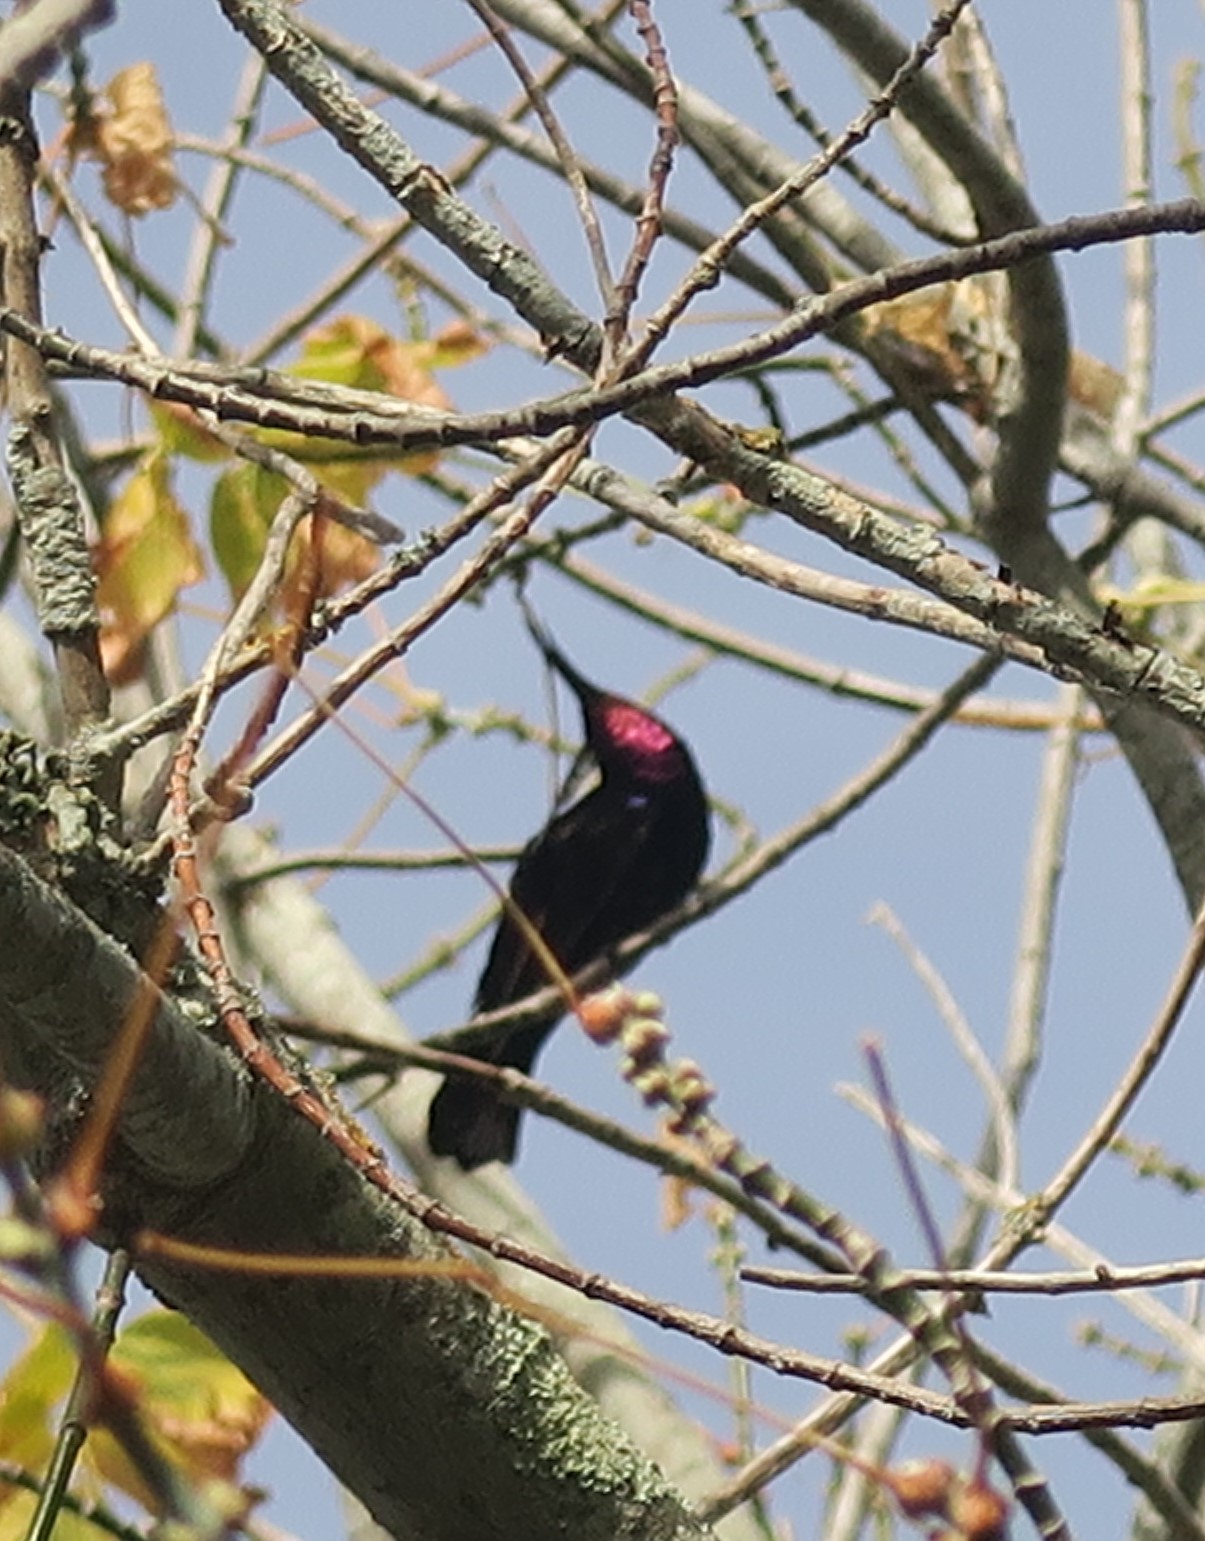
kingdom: Animalia
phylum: Chordata
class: Aves
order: Passeriformes
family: Nectariniidae
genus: Chalcomitra
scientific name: Chalcomitra amethystina
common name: Amethyst sunbird
